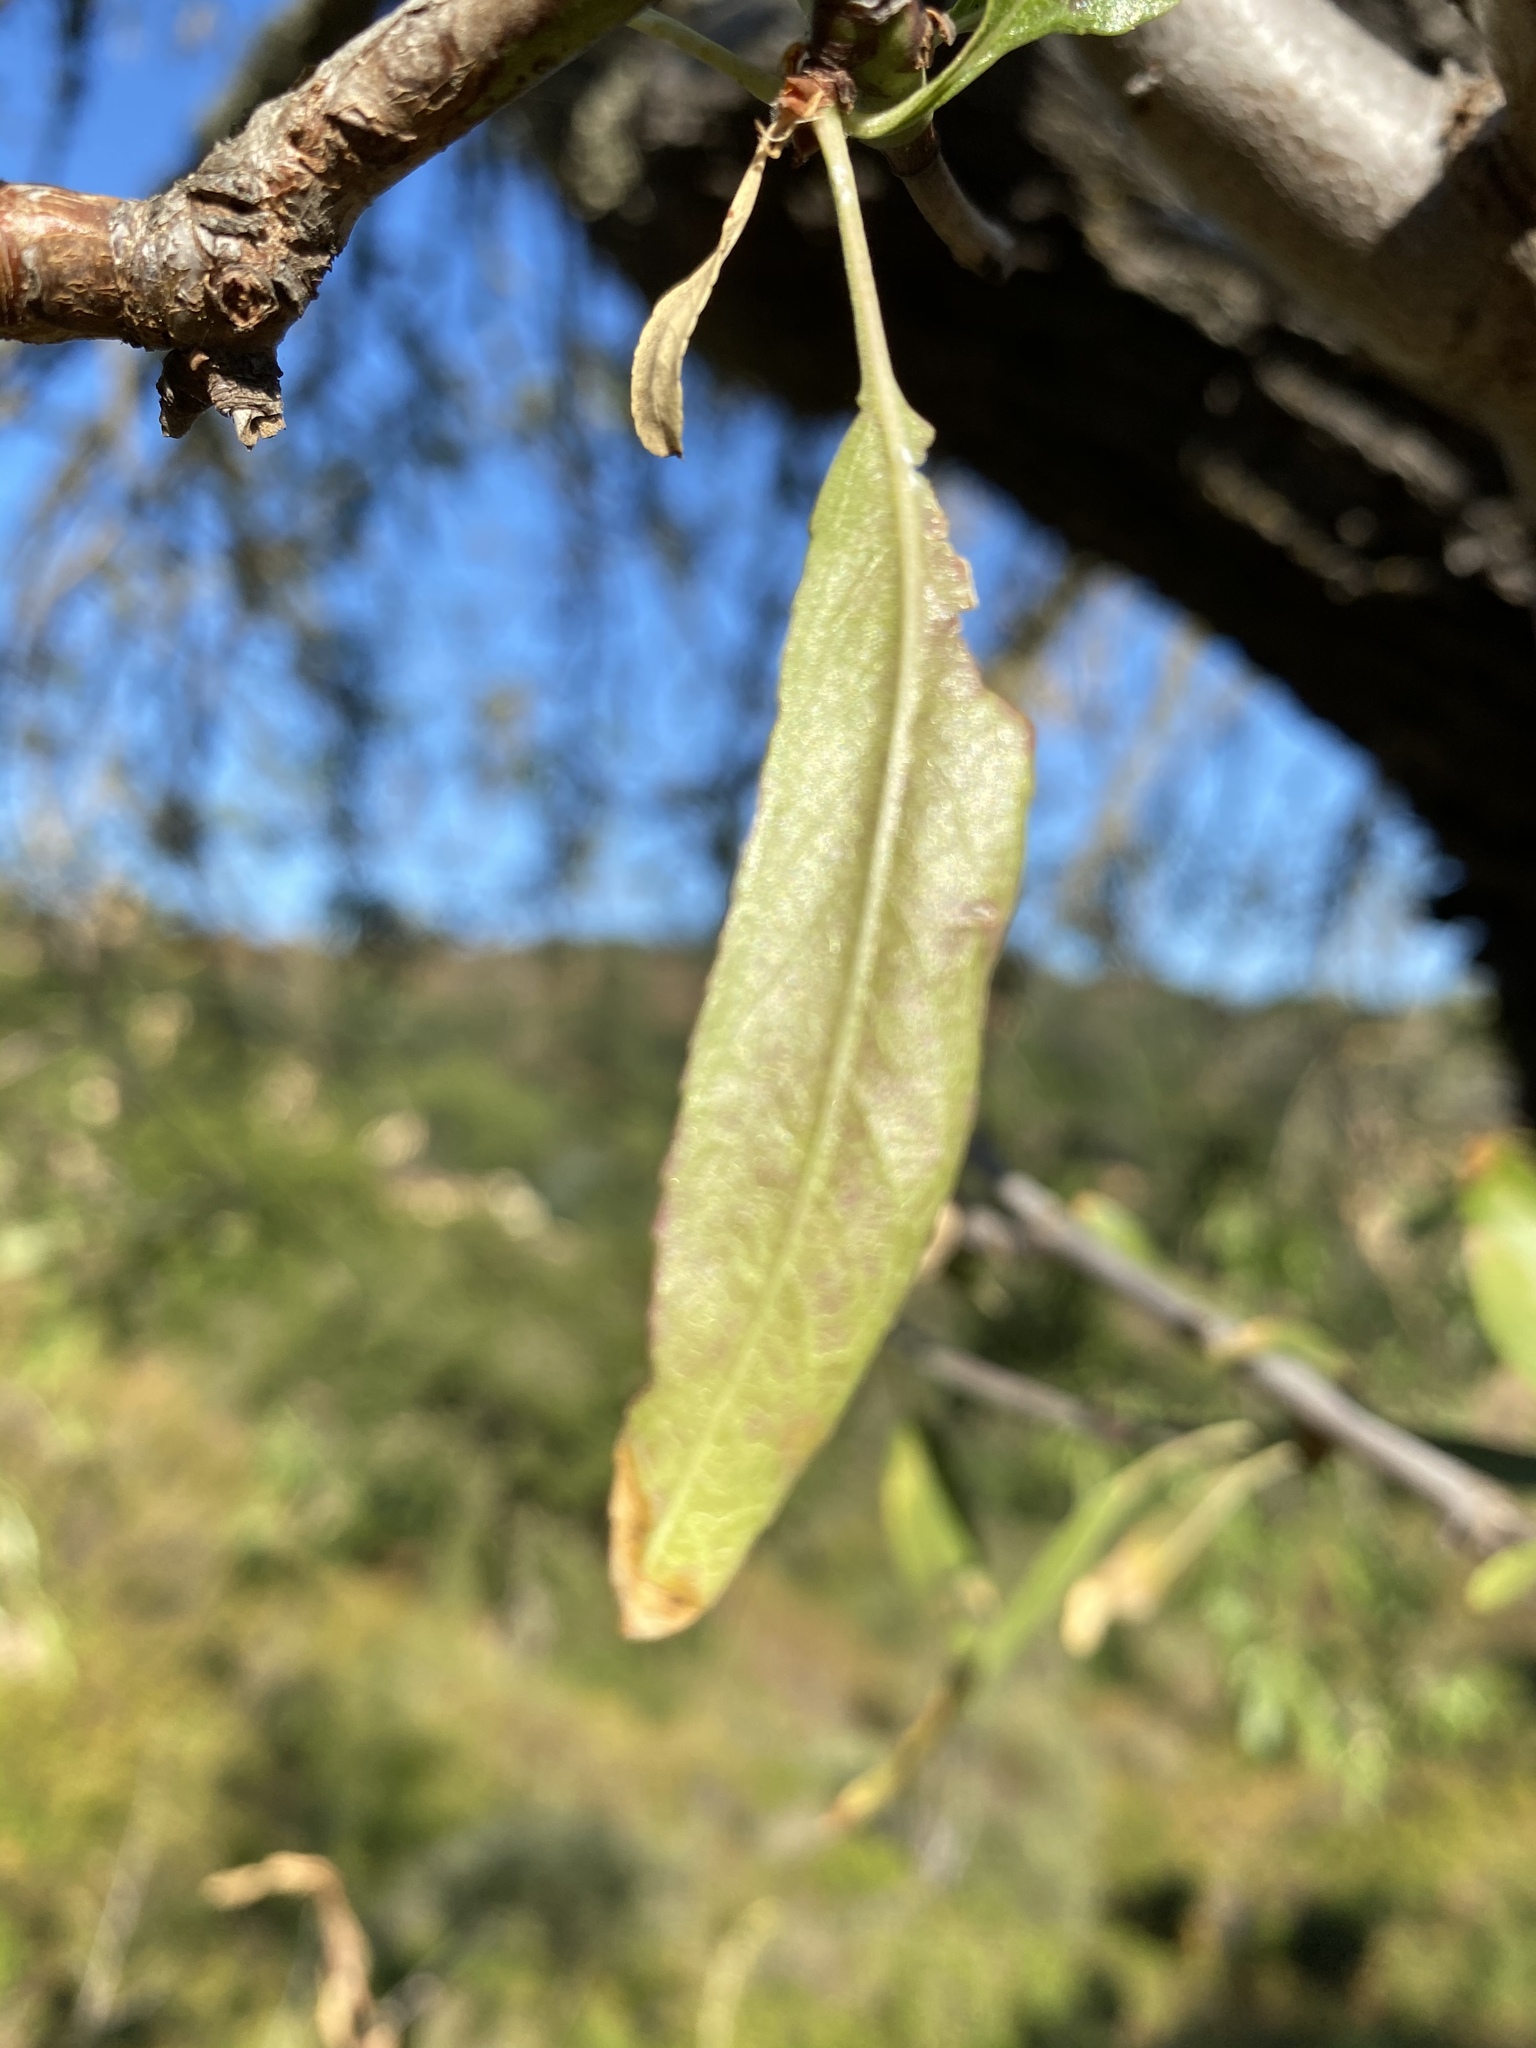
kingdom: Plantae
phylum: Tracheophyta
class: Magnoliopsida
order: Rosales
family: Rosaceae
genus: Prunus
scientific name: Prunus amygdalus
